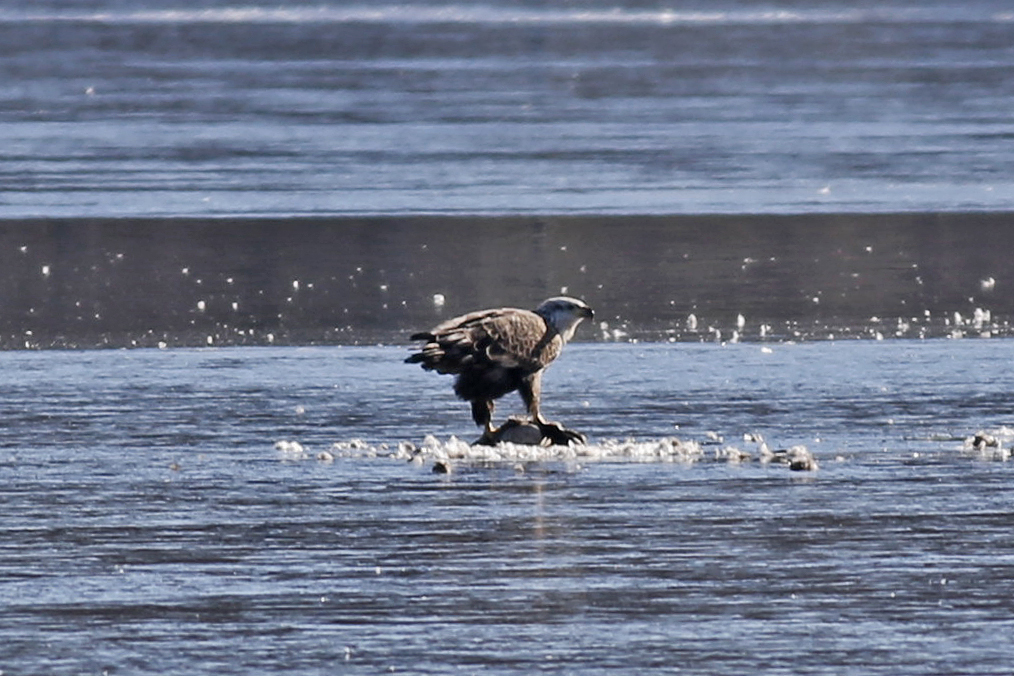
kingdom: Animalia
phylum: Chordata
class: Aves
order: Accipitriformes
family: Accipitridae
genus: Haliaeetus
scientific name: Haliaeetus leucocephalus
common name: Bald eagle
